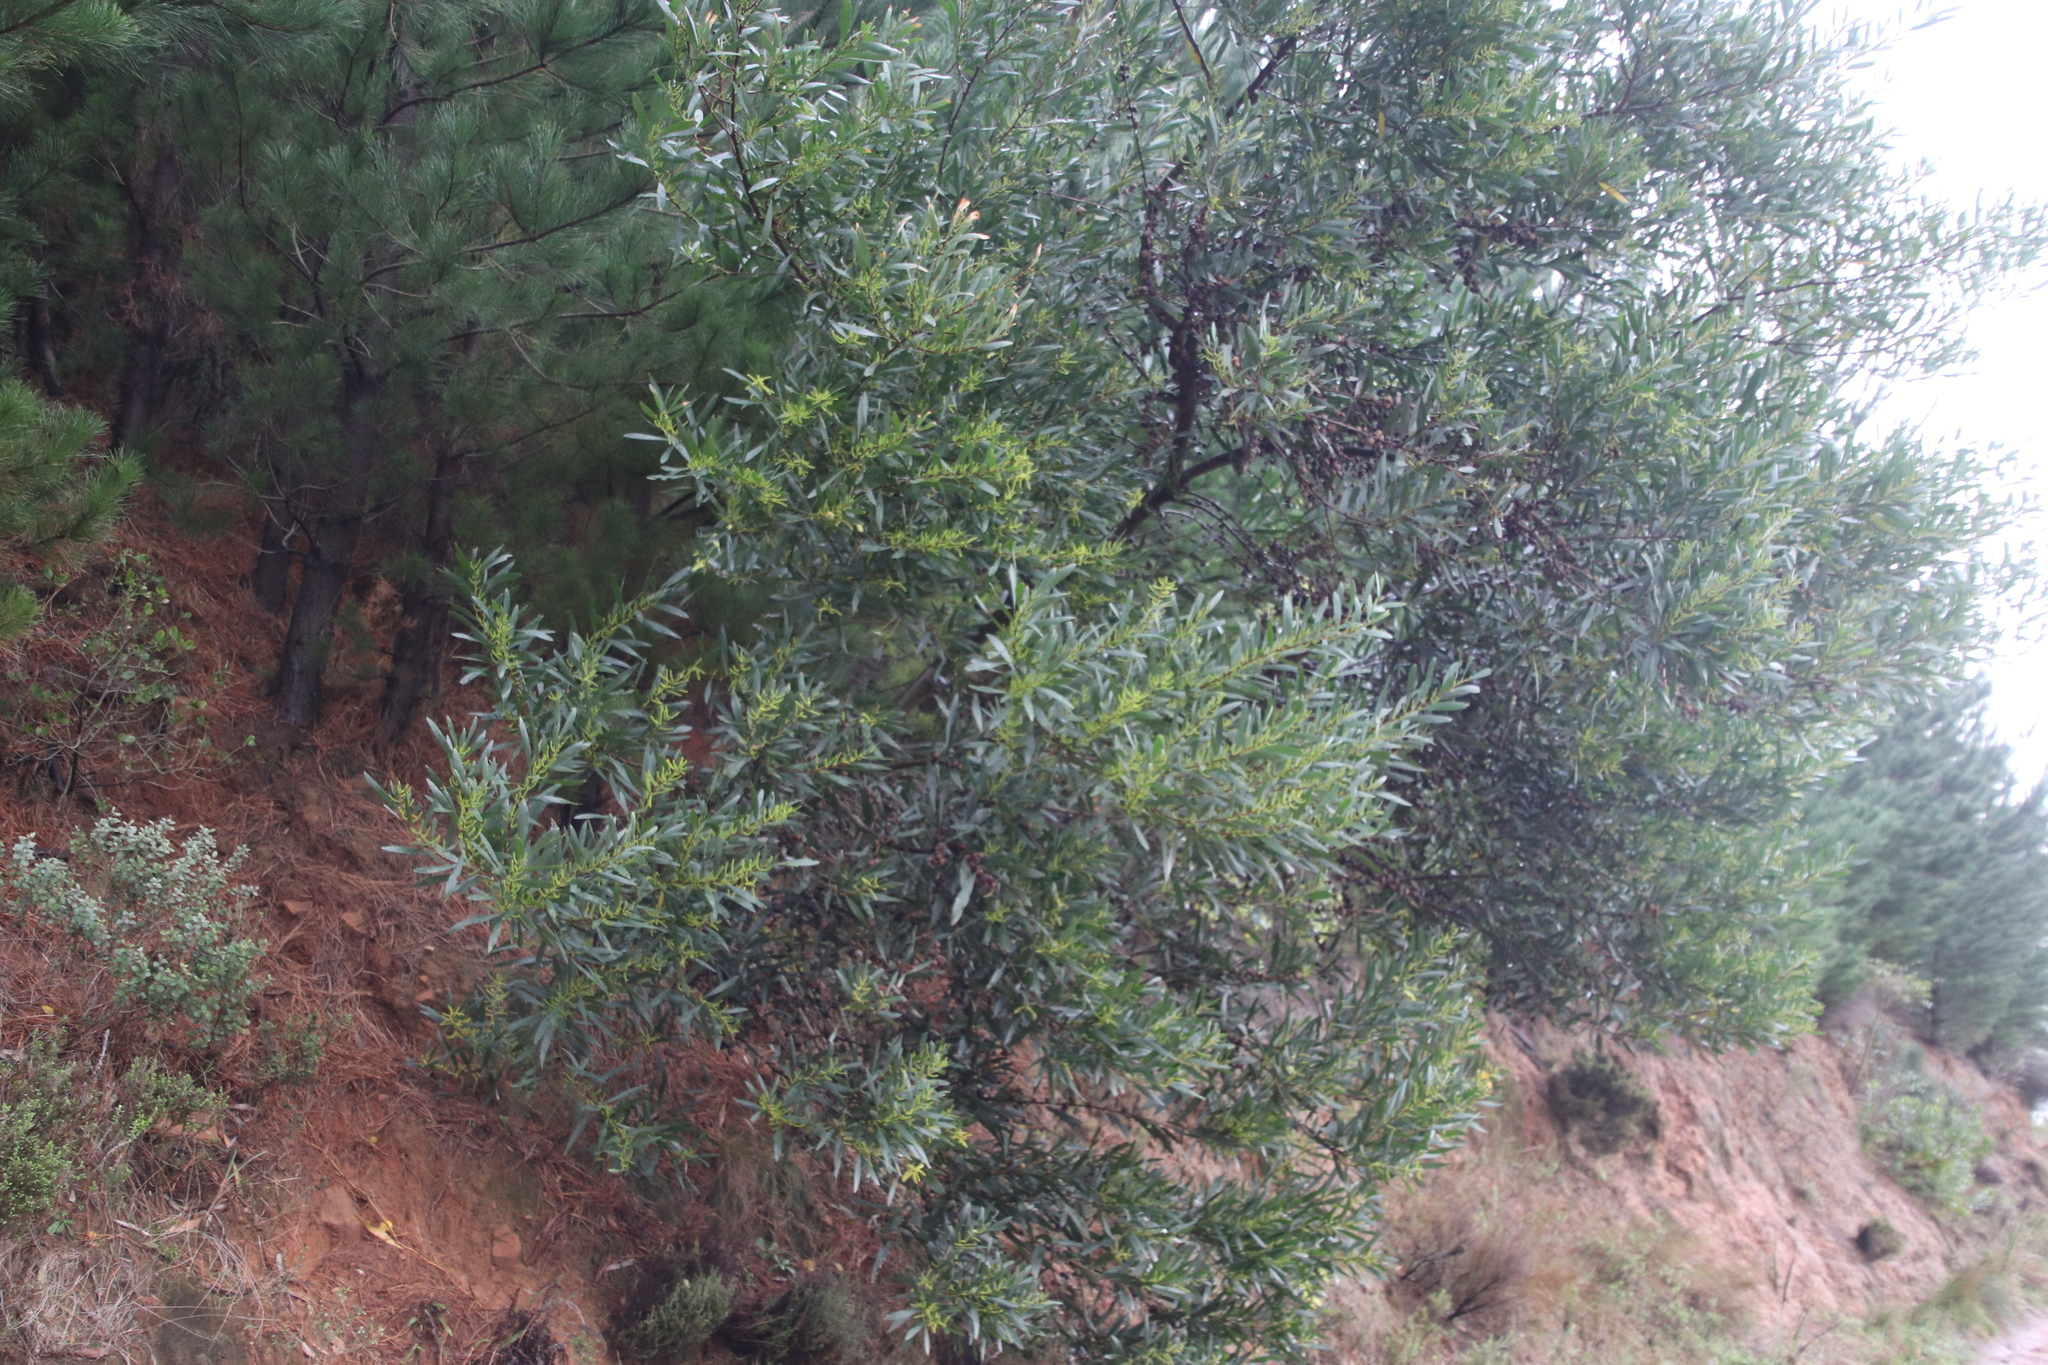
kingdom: Plantae
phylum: Tracheophyta
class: Magnoliopsida
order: Fabales
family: Fabaceae
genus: Acacia
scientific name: Acacia longifolia
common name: Sydney golden wattle
